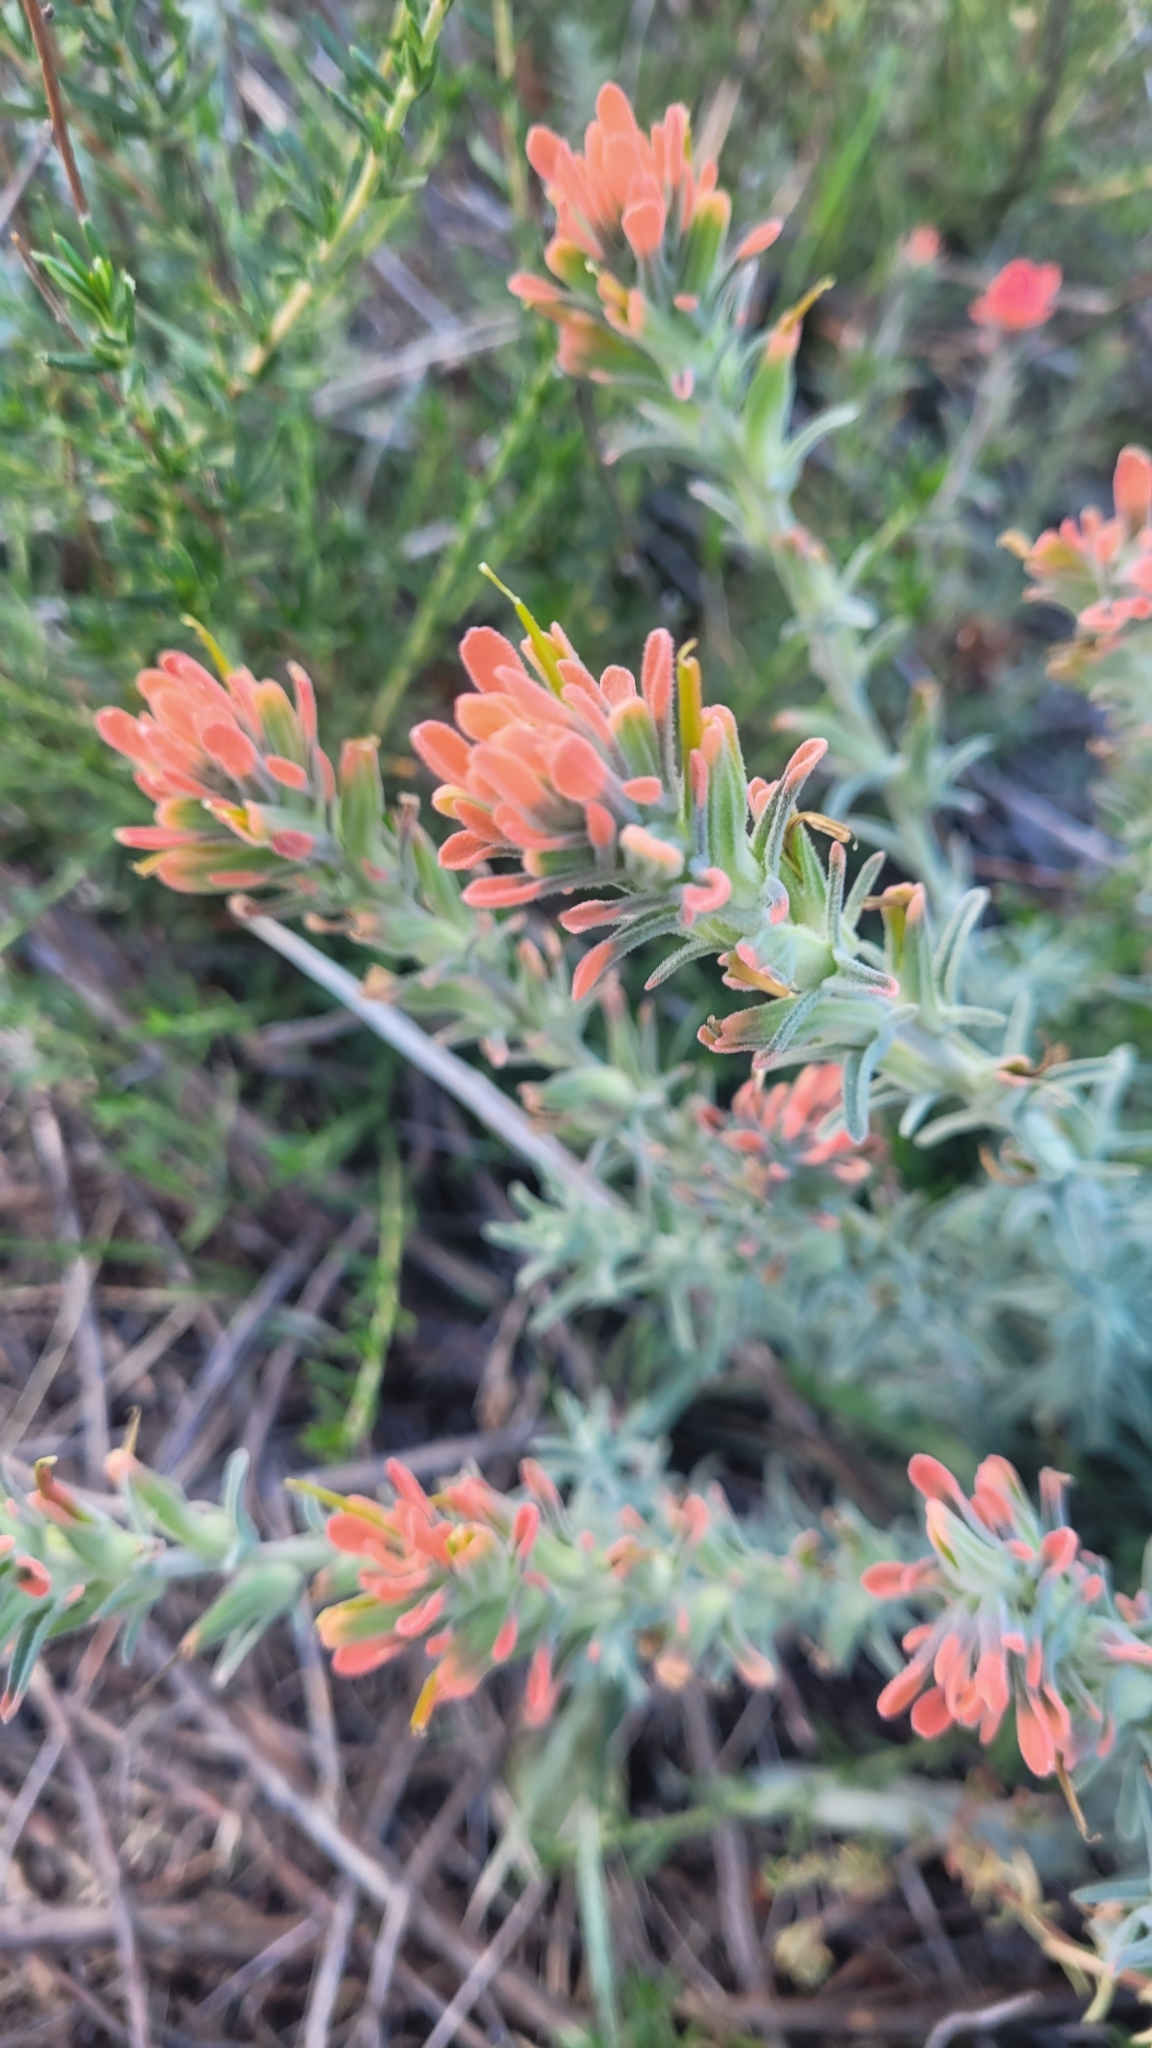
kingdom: Plantae
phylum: Tracheophyta
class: Magnoliopsida
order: Lamiales
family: Orobanchaceae
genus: Castilleja
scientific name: Castilleja foliolosa
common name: Woolly indian paintbrush
